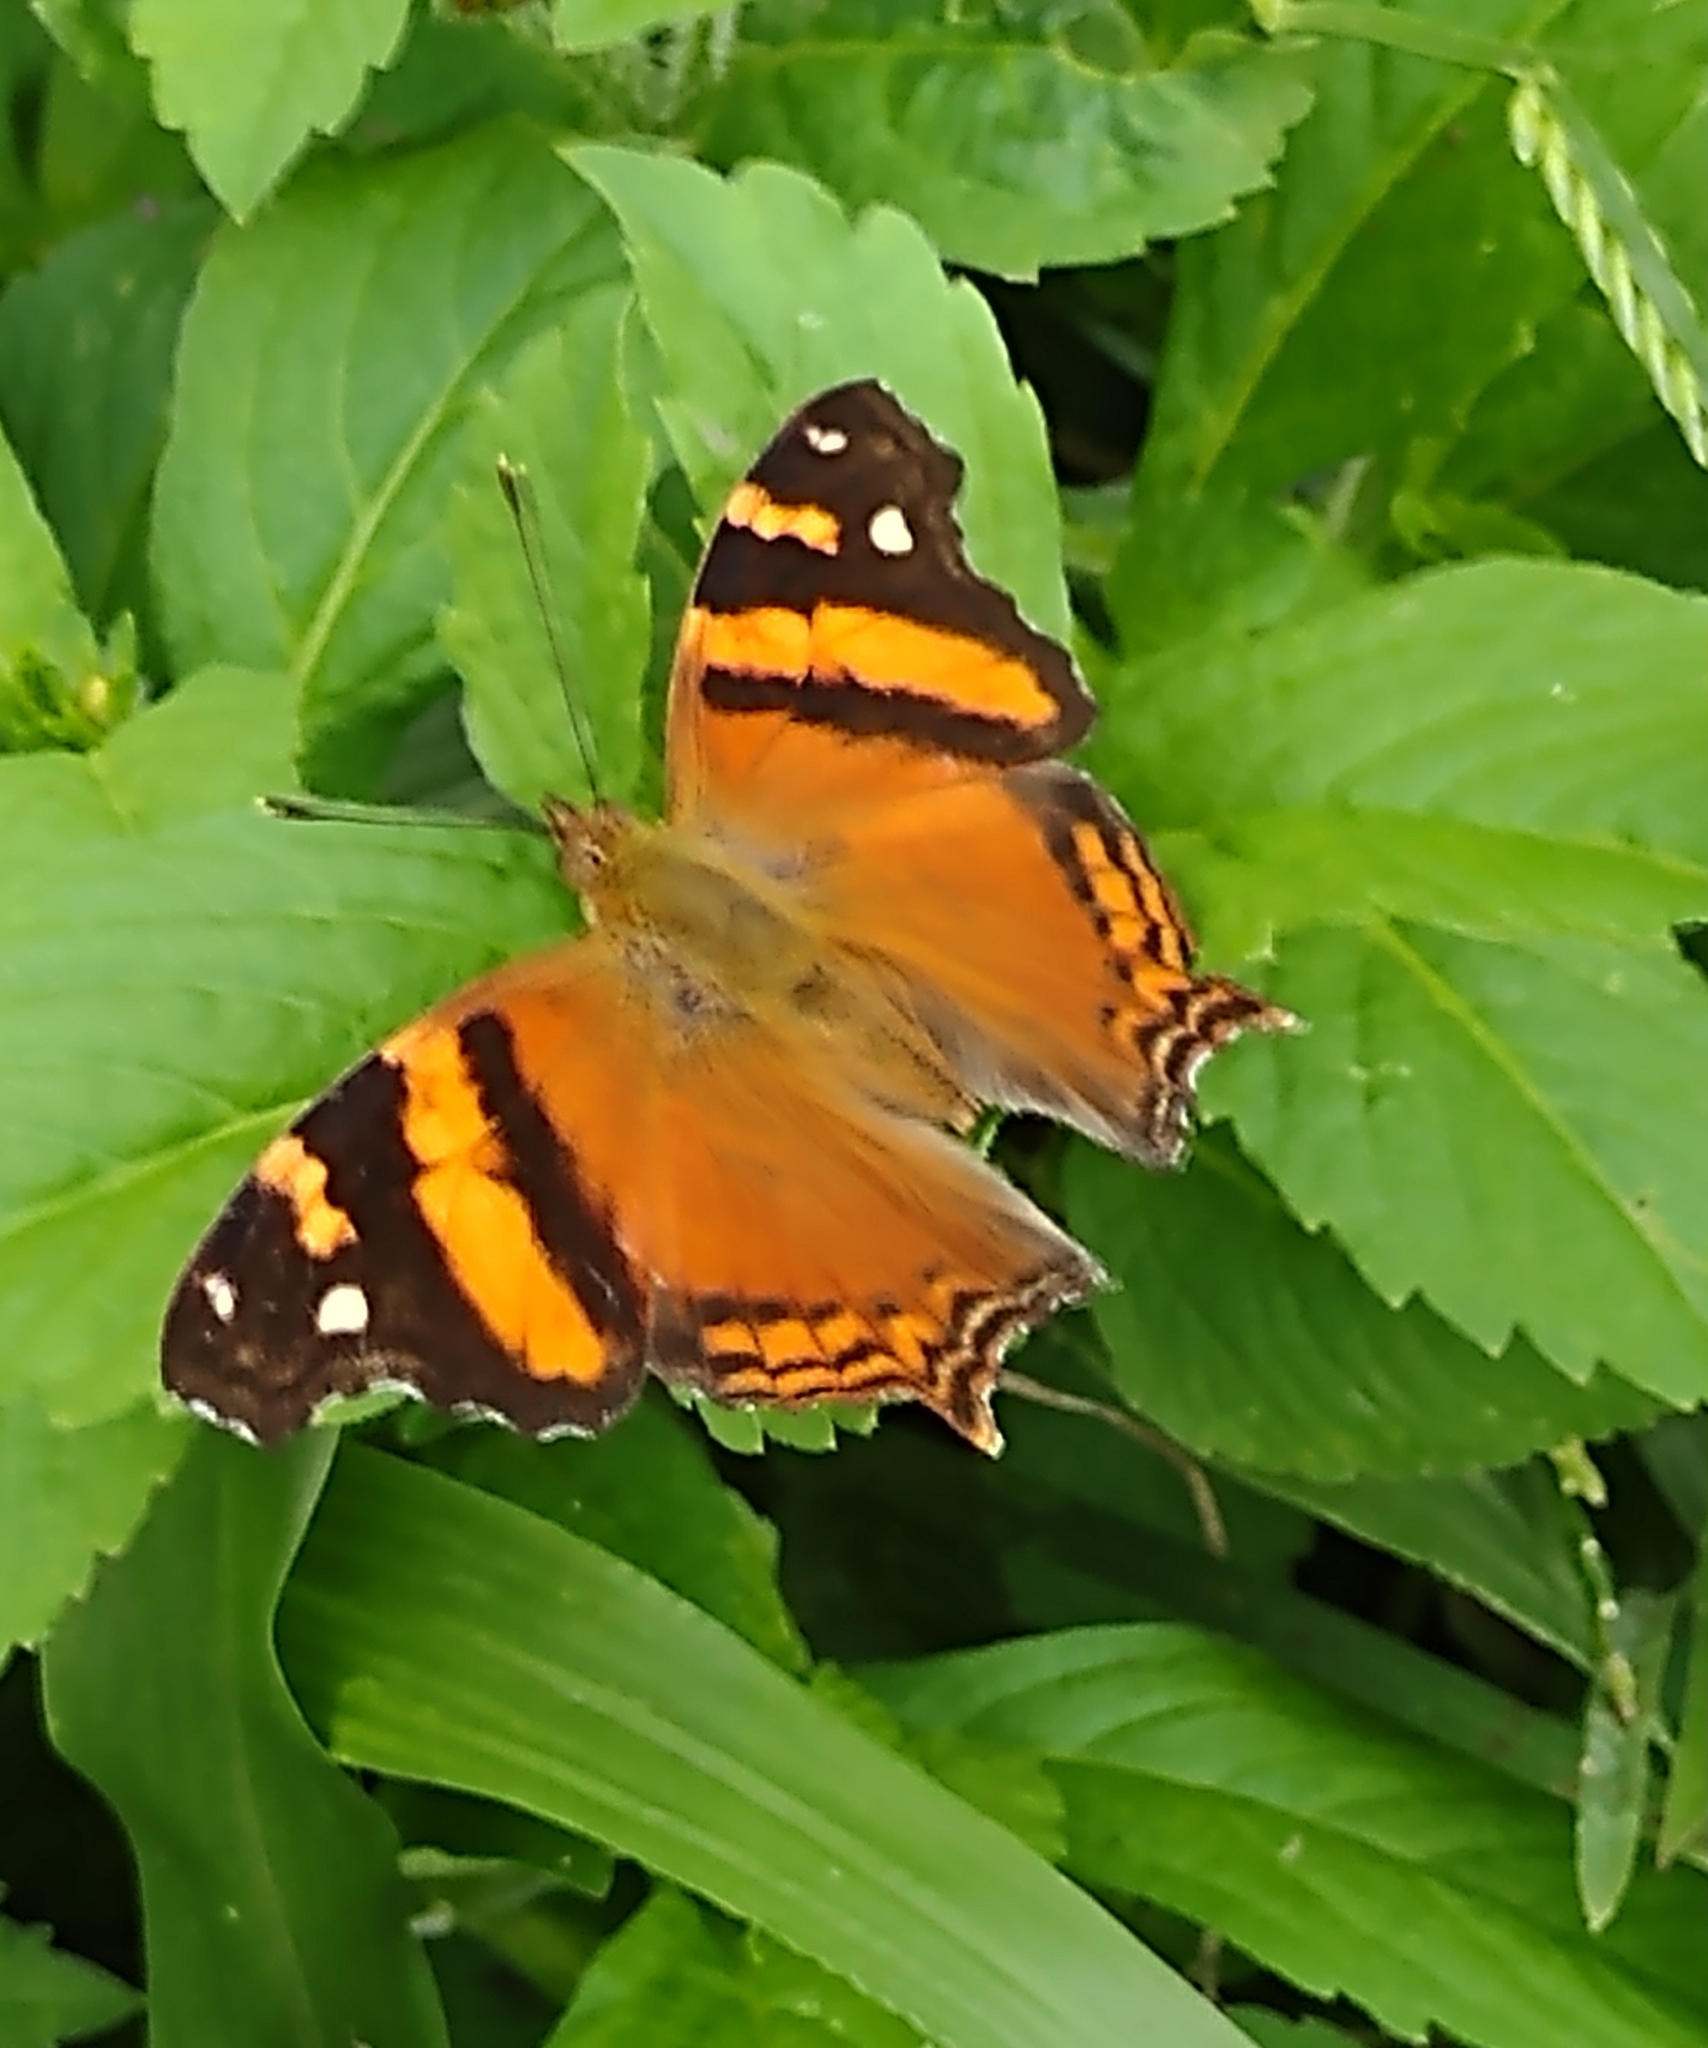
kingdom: Animalia
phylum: Arthropoda
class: Insecta
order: Lepidoptera
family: Nymphalidae
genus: Hypanartia
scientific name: Hypanartia bella
